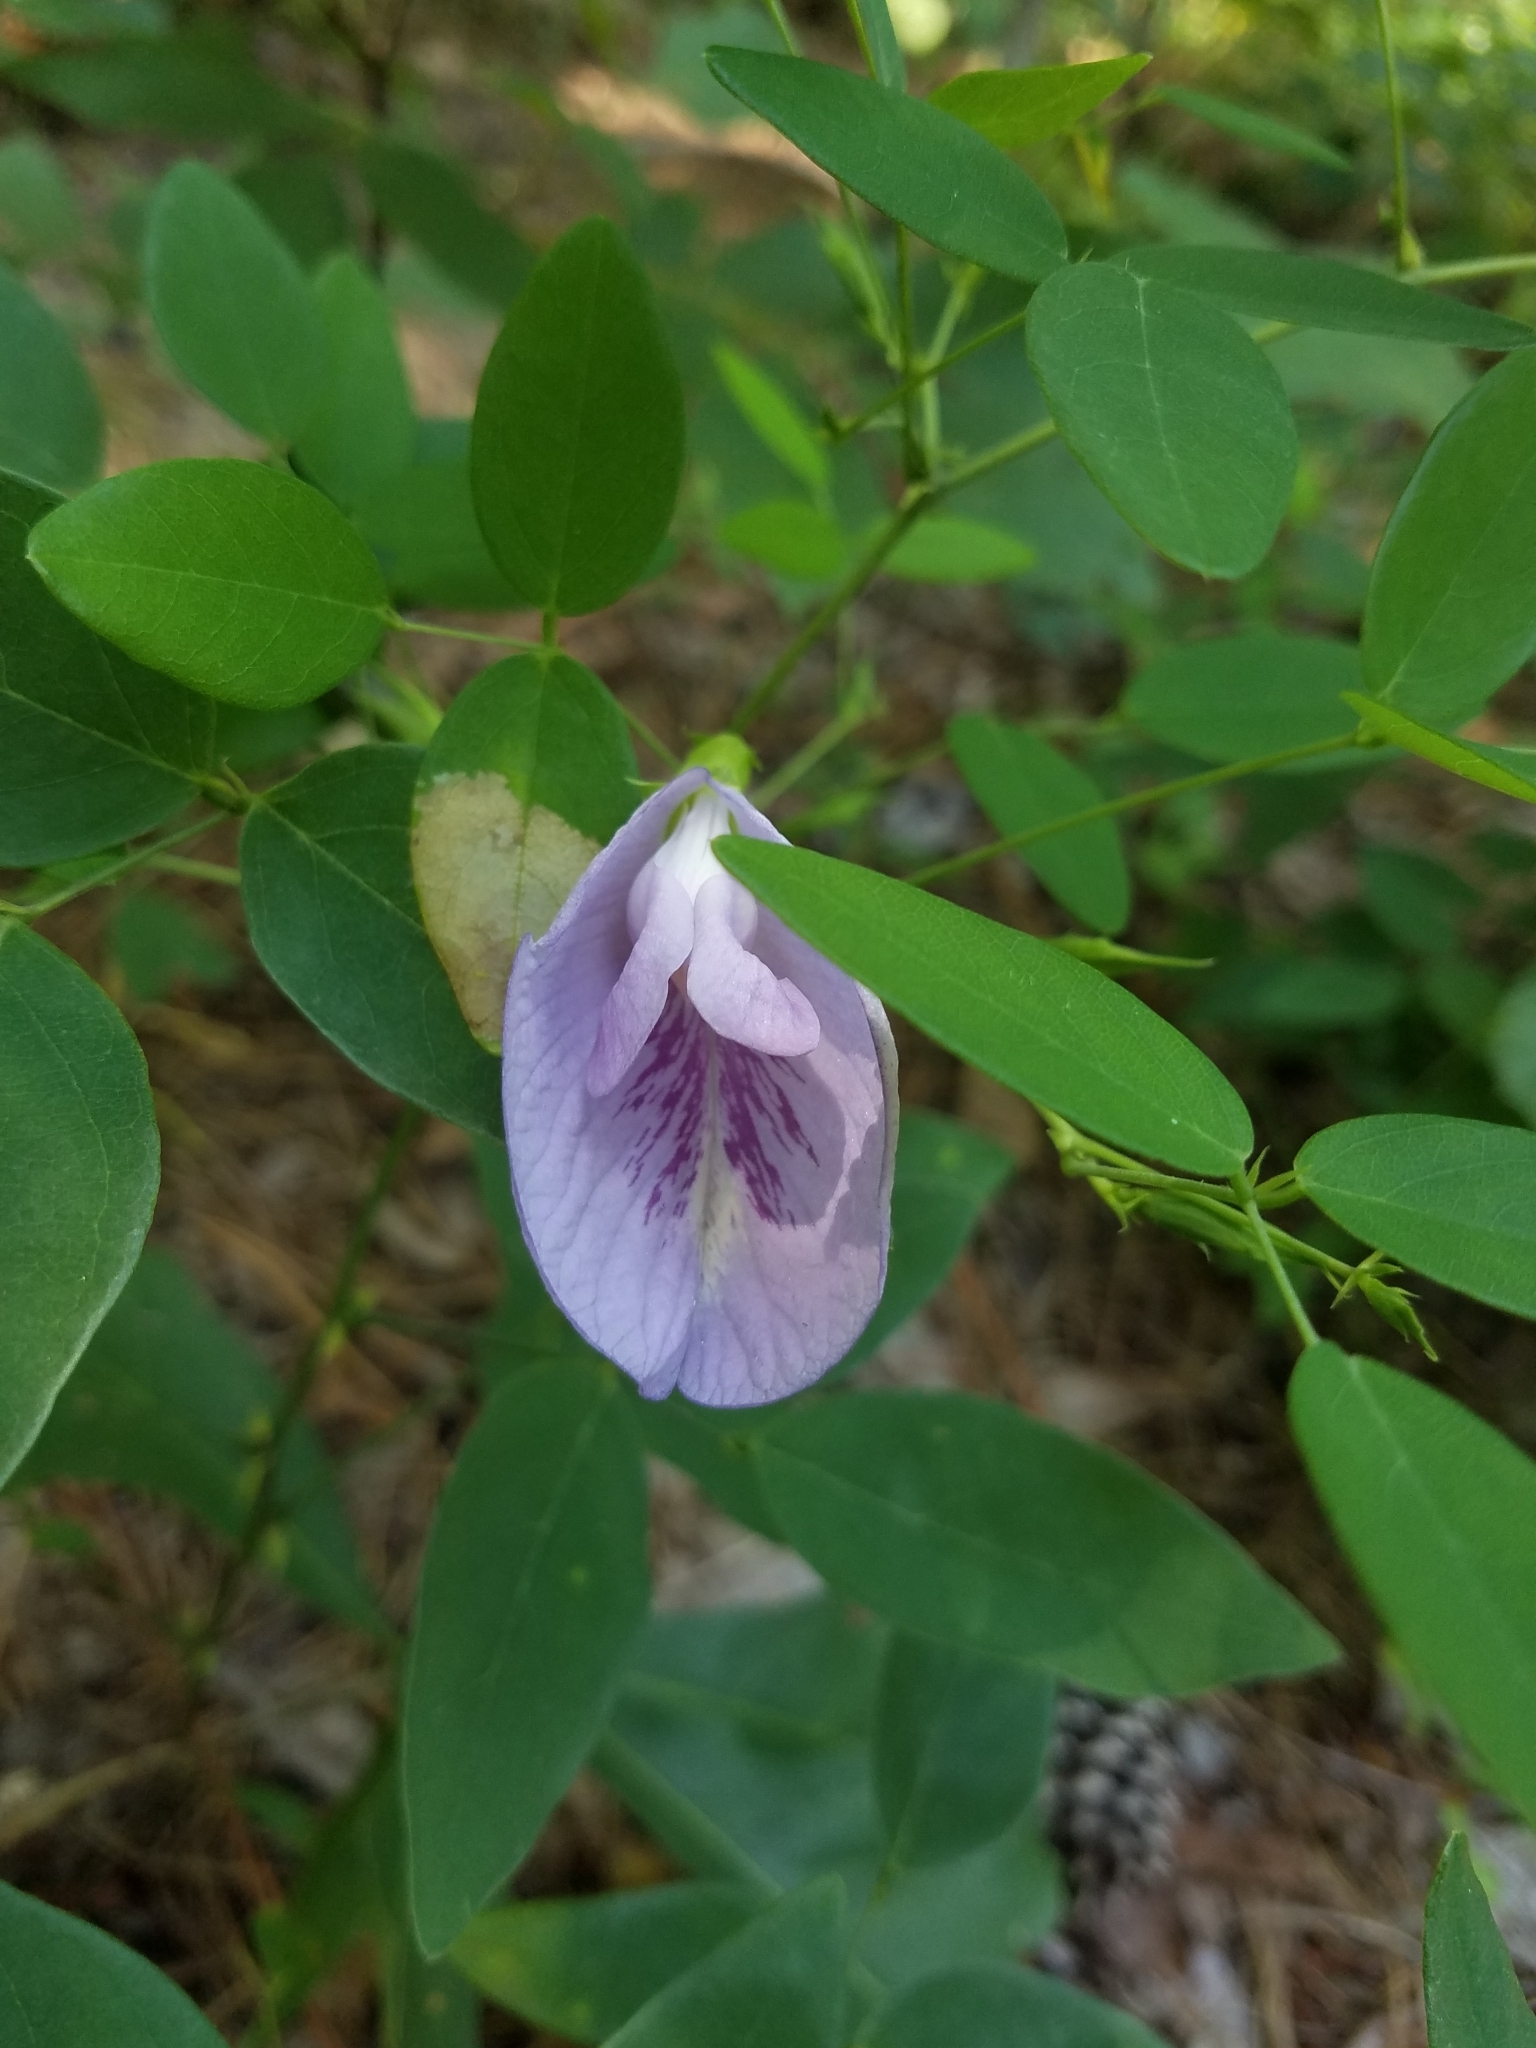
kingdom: Plantae
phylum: Tracheophyta
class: Magnoliopsida
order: Fabales
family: Fabaceae
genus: Clitoria
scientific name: Clitoria mariana
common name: Butterfly-pea
